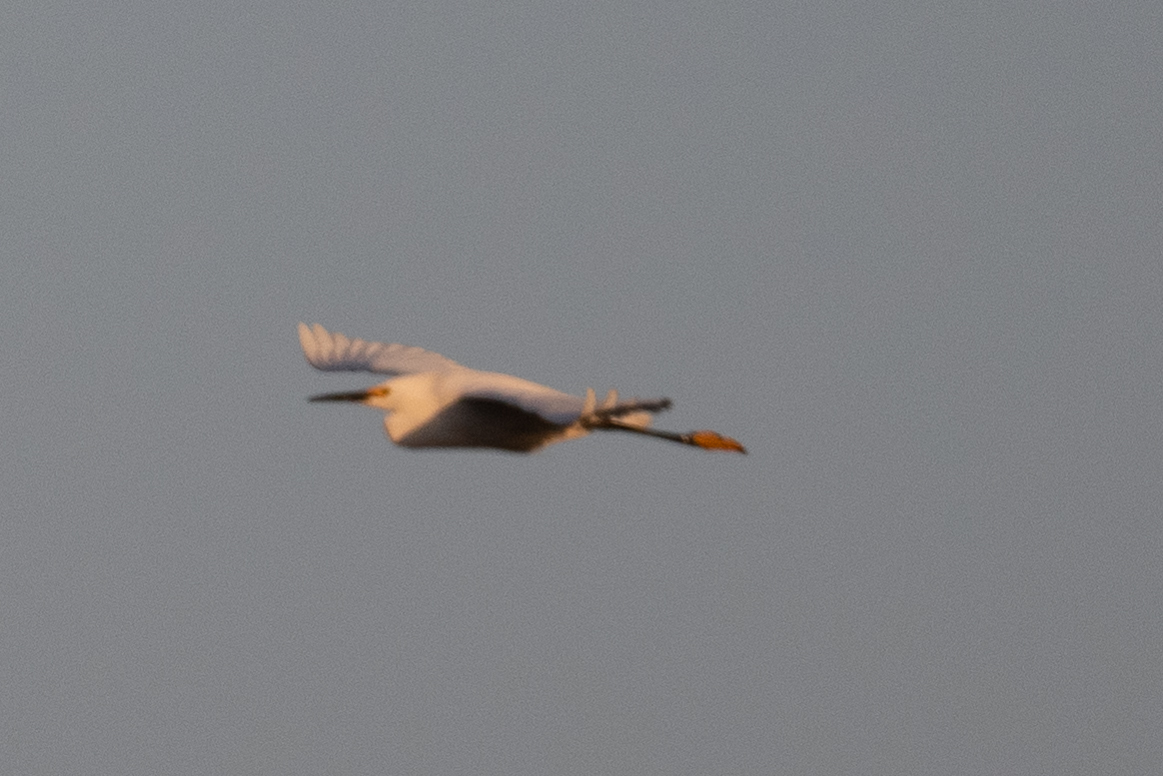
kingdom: Animalia
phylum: Chordata
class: Aves
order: Pelecaniformes
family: Ardeidae
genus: Egretta
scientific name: Egretta thula
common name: Snowy egret
